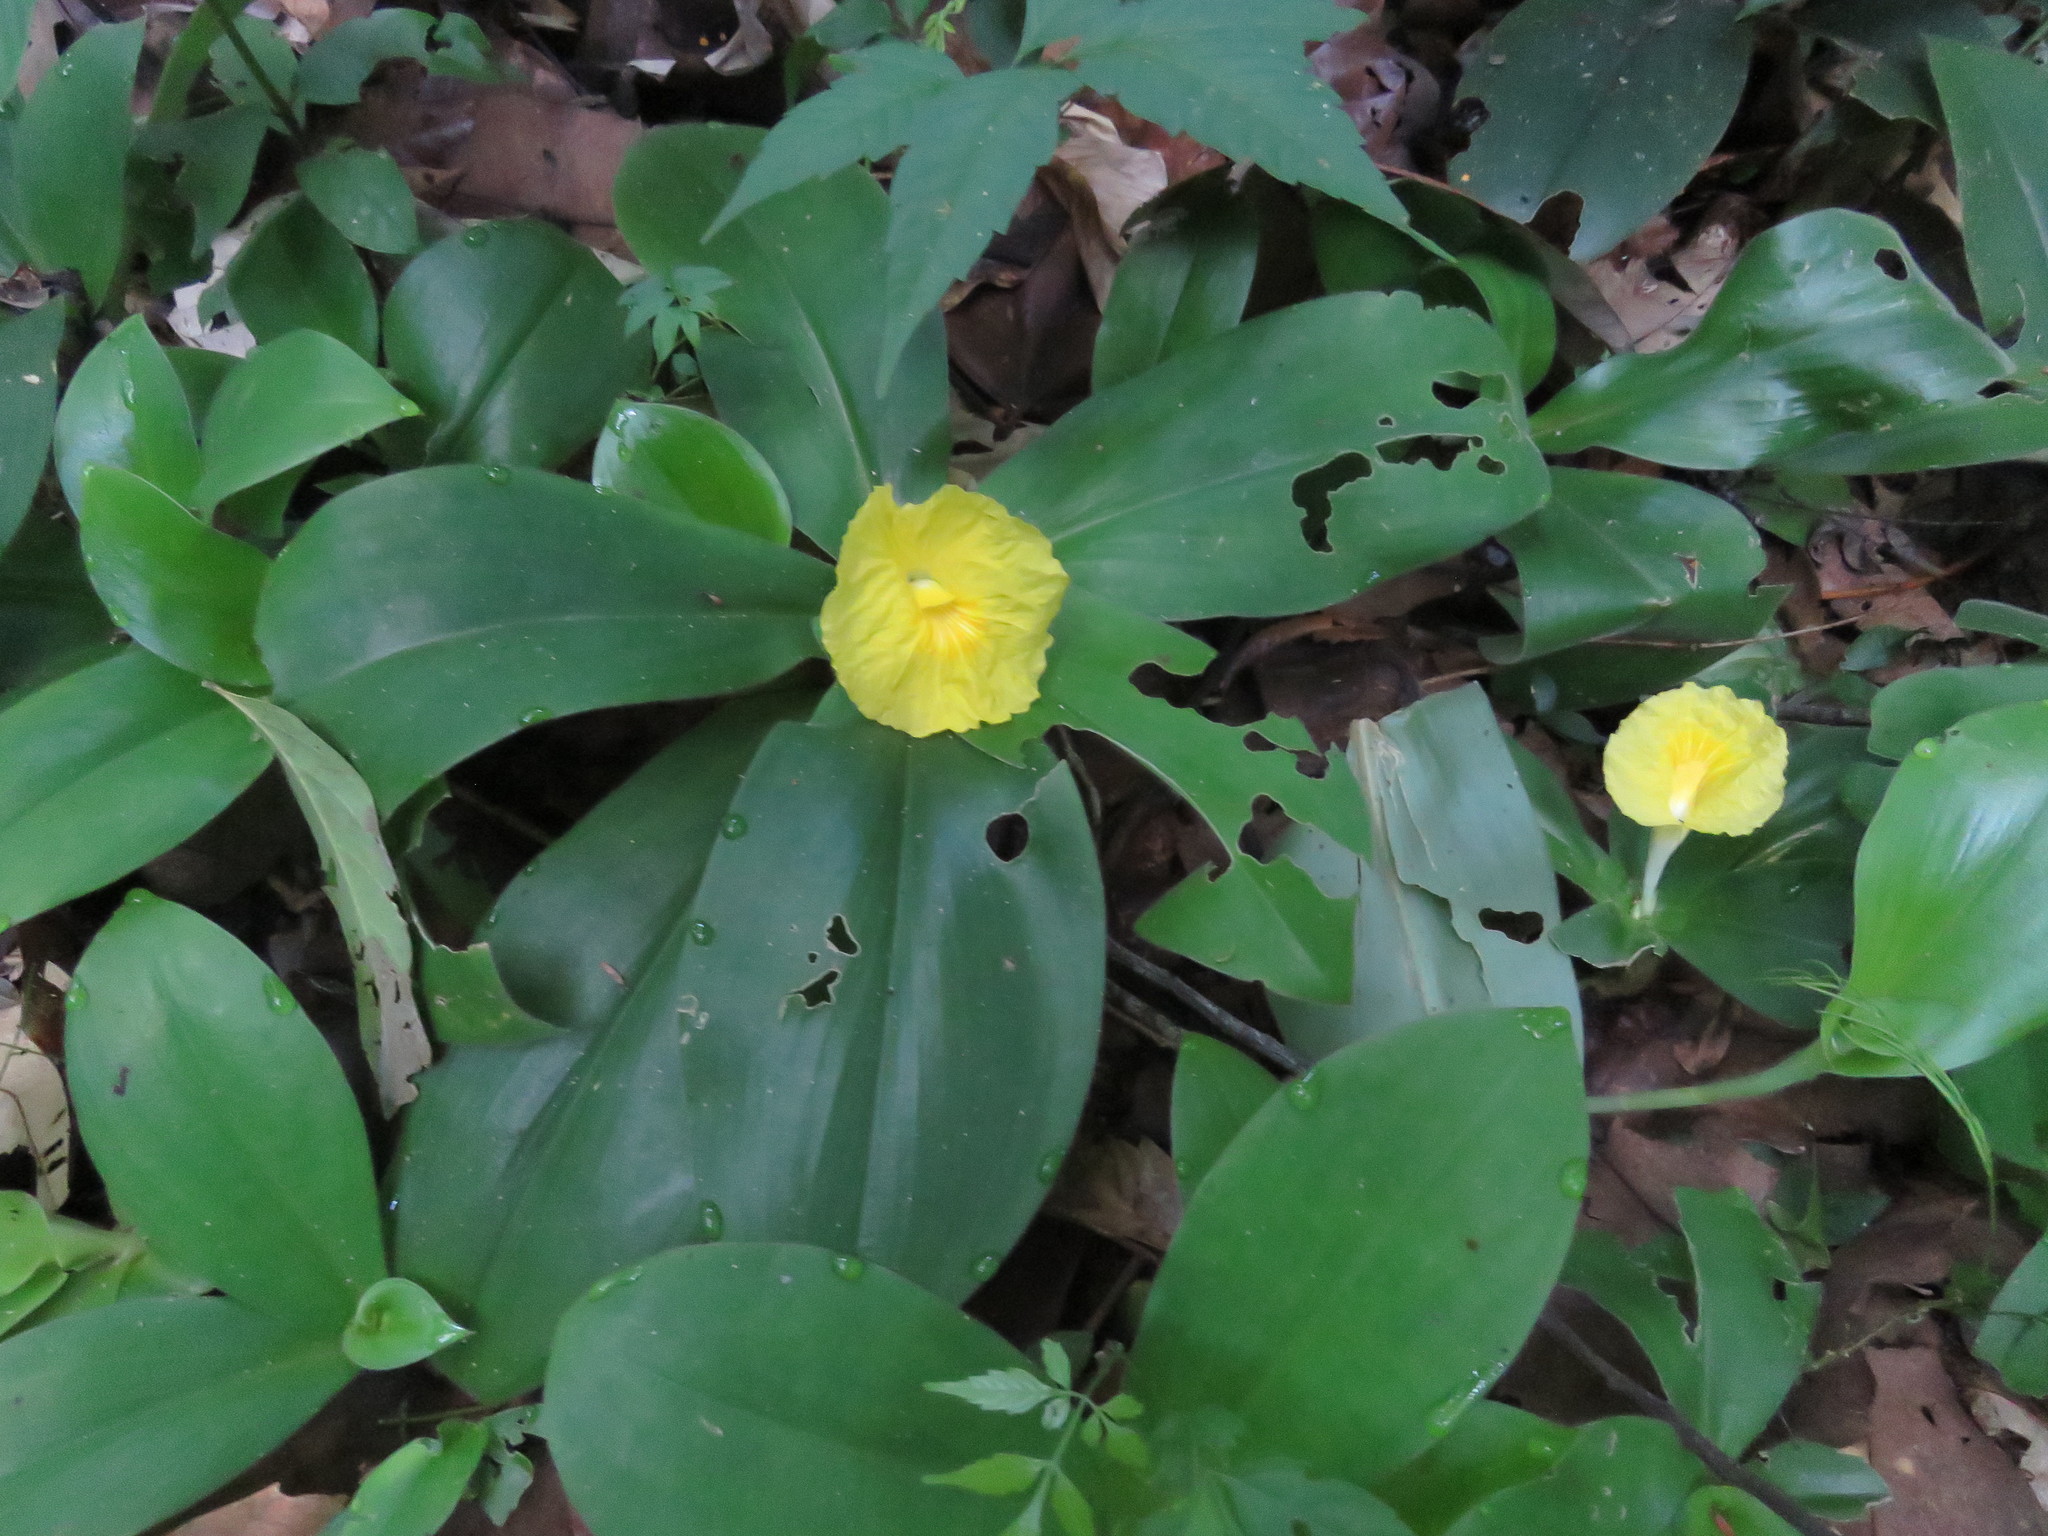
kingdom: Plantae
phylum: Tracheophyta
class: Liliopsida
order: Zingiberales
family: Costaceae
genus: Chamaecostus
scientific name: Chamaecostus acaulis
